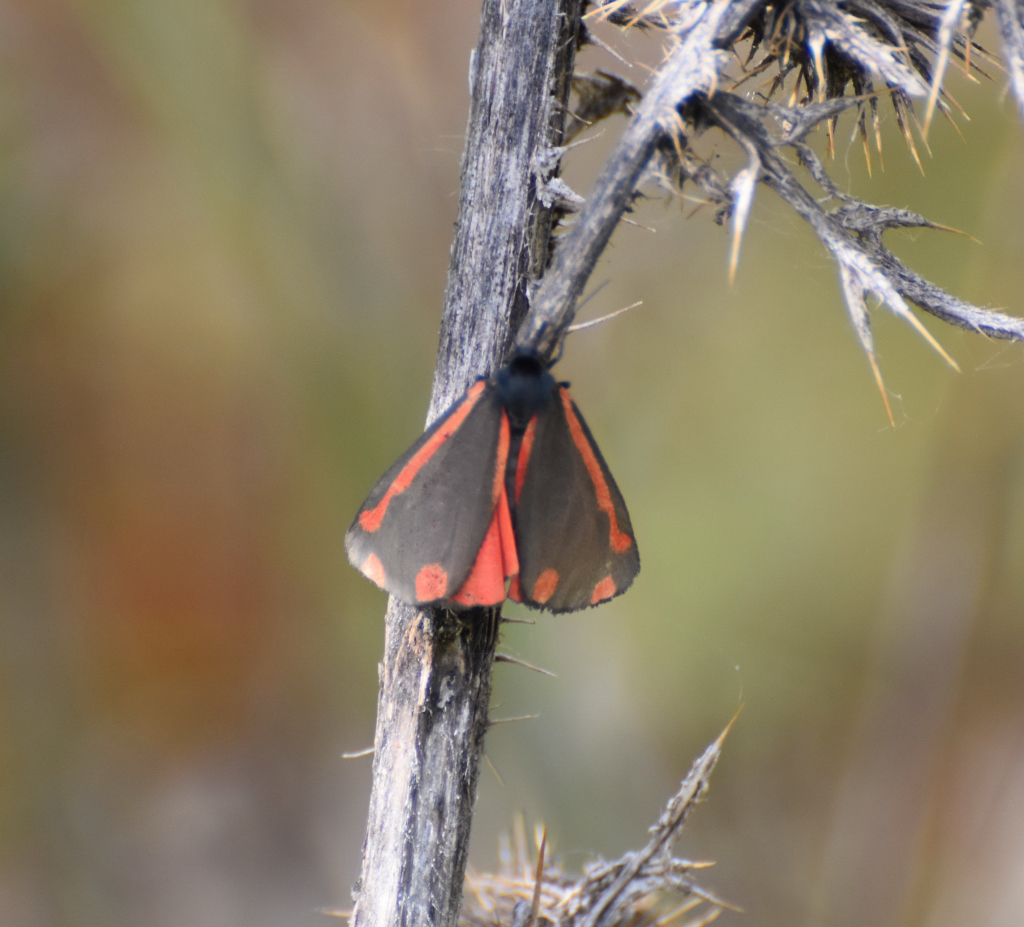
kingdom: Animalia
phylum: Arthropoda
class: Insecta
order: Lepidoptera
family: Erebidae
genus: Tyria
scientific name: Tyria jacobaeae
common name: Cinnabar
